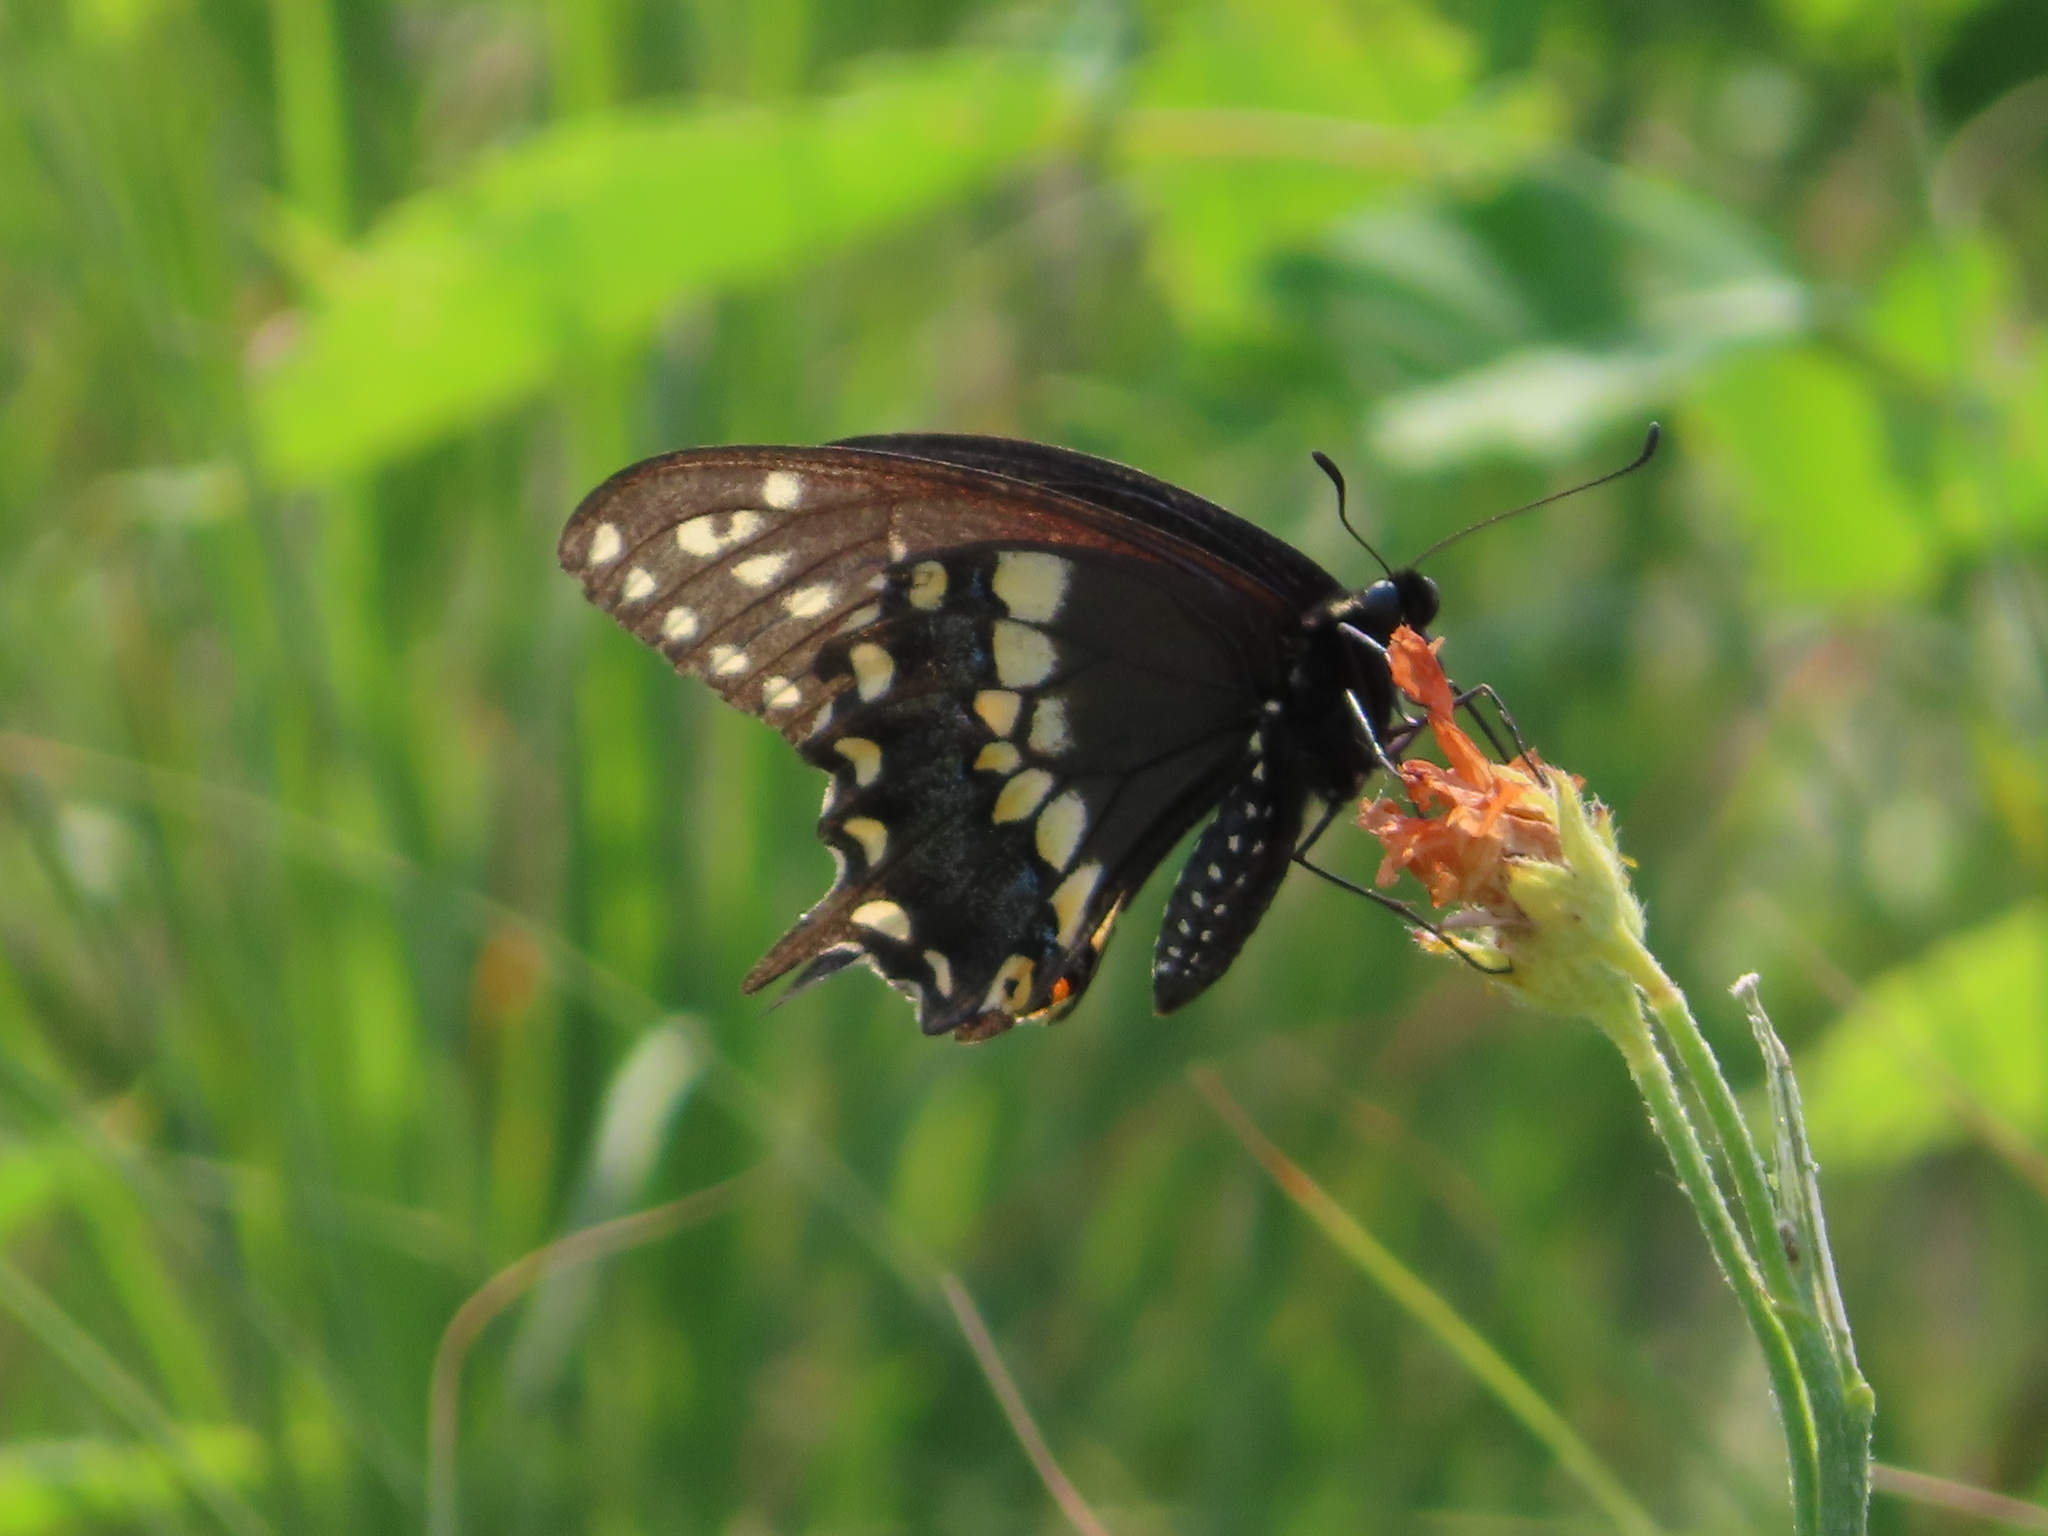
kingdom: Animalia
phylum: Arthropoda
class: Insecta
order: Lepidoptera
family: Papilionidae
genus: Papilio
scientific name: Papilio polyxenes
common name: Black swallowtail
